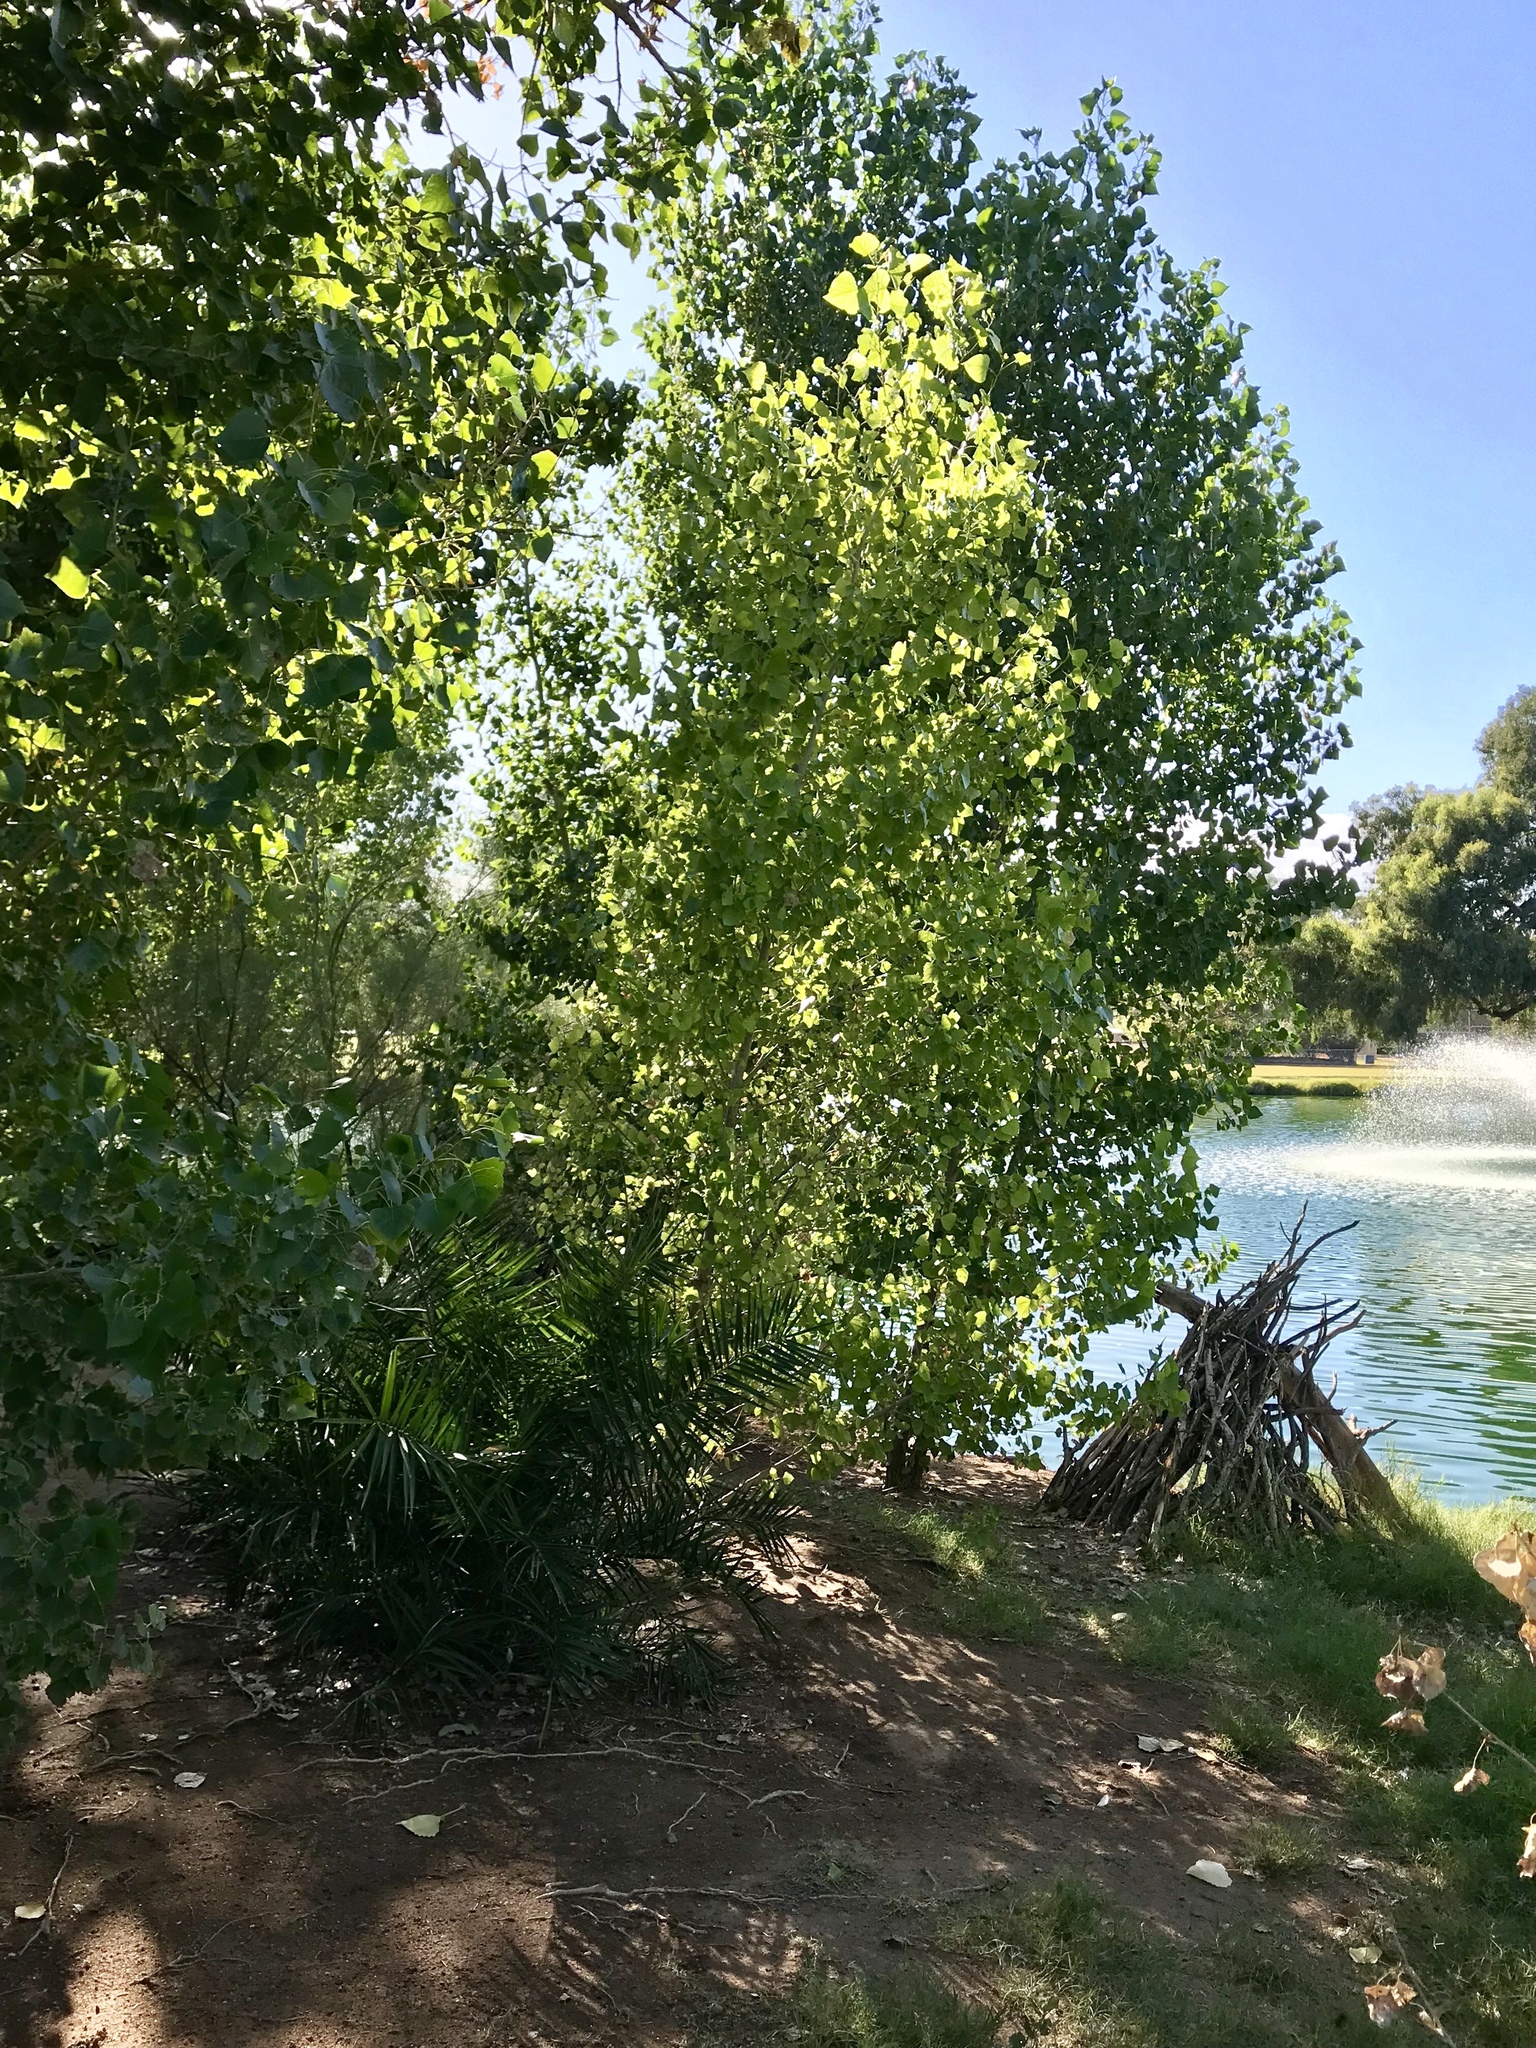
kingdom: Plantae
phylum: Tracheophyta
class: Magnoliopsida
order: Malpighiales
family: Salicaceae
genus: Populus
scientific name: Populus fremontii
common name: Fremont's cottonwood
